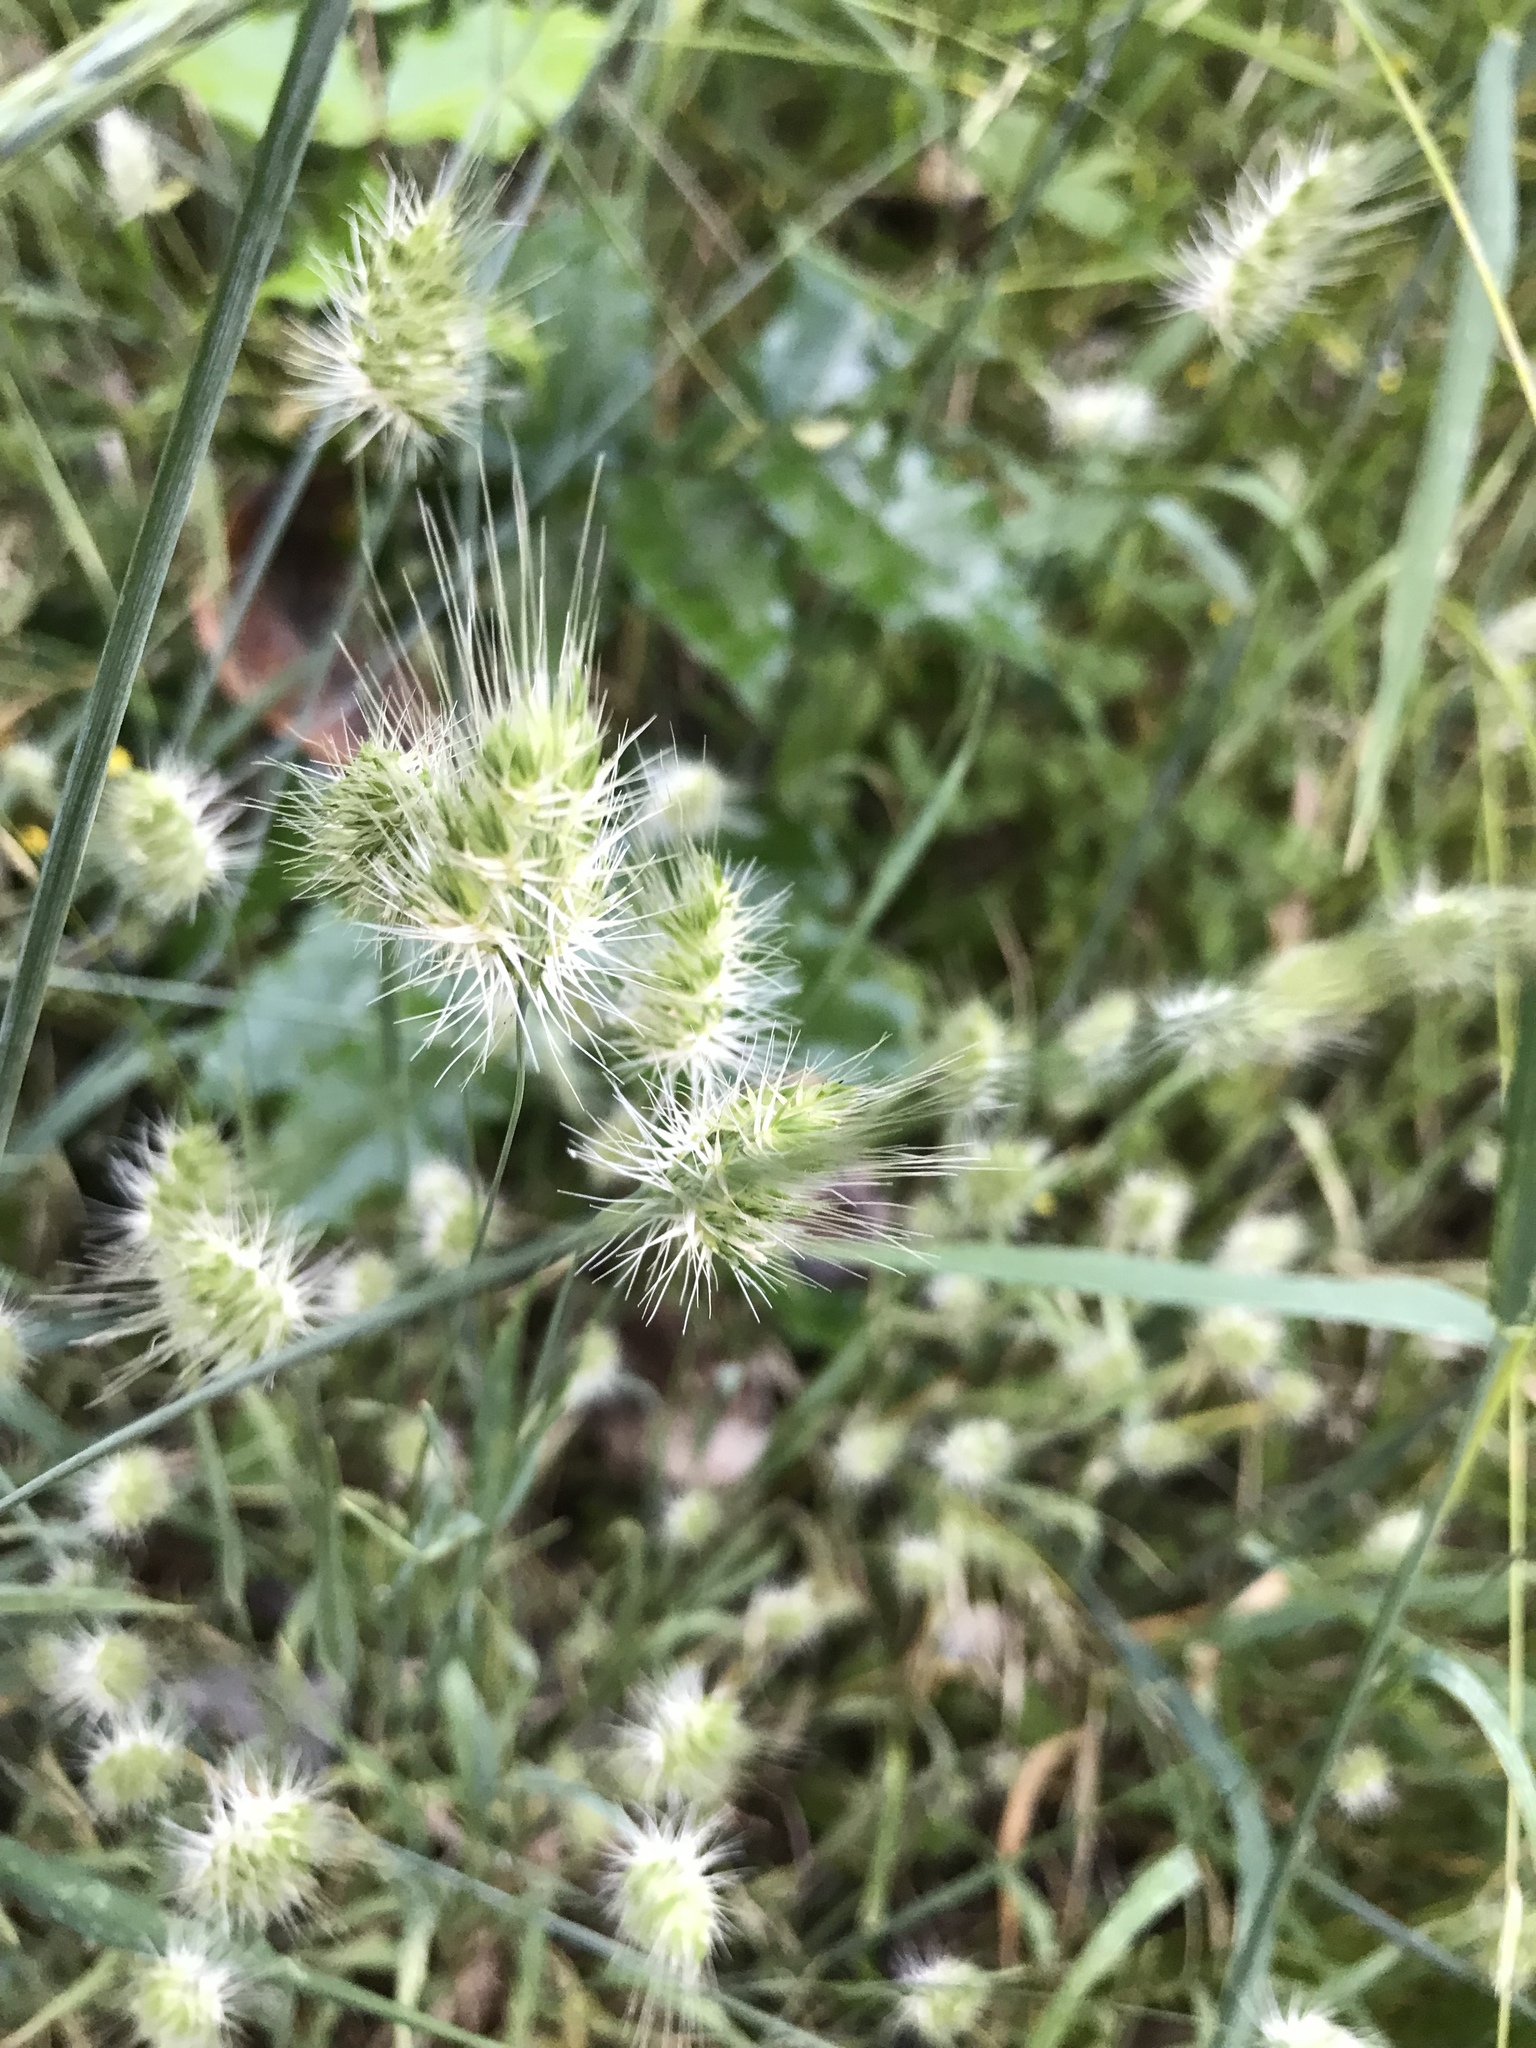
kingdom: Plantae
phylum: Tracheophyta
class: Liliopsida
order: Poales
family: Poaceae
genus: Cynosurus
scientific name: Cynosurus echinatus
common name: Rough dog's-tail
